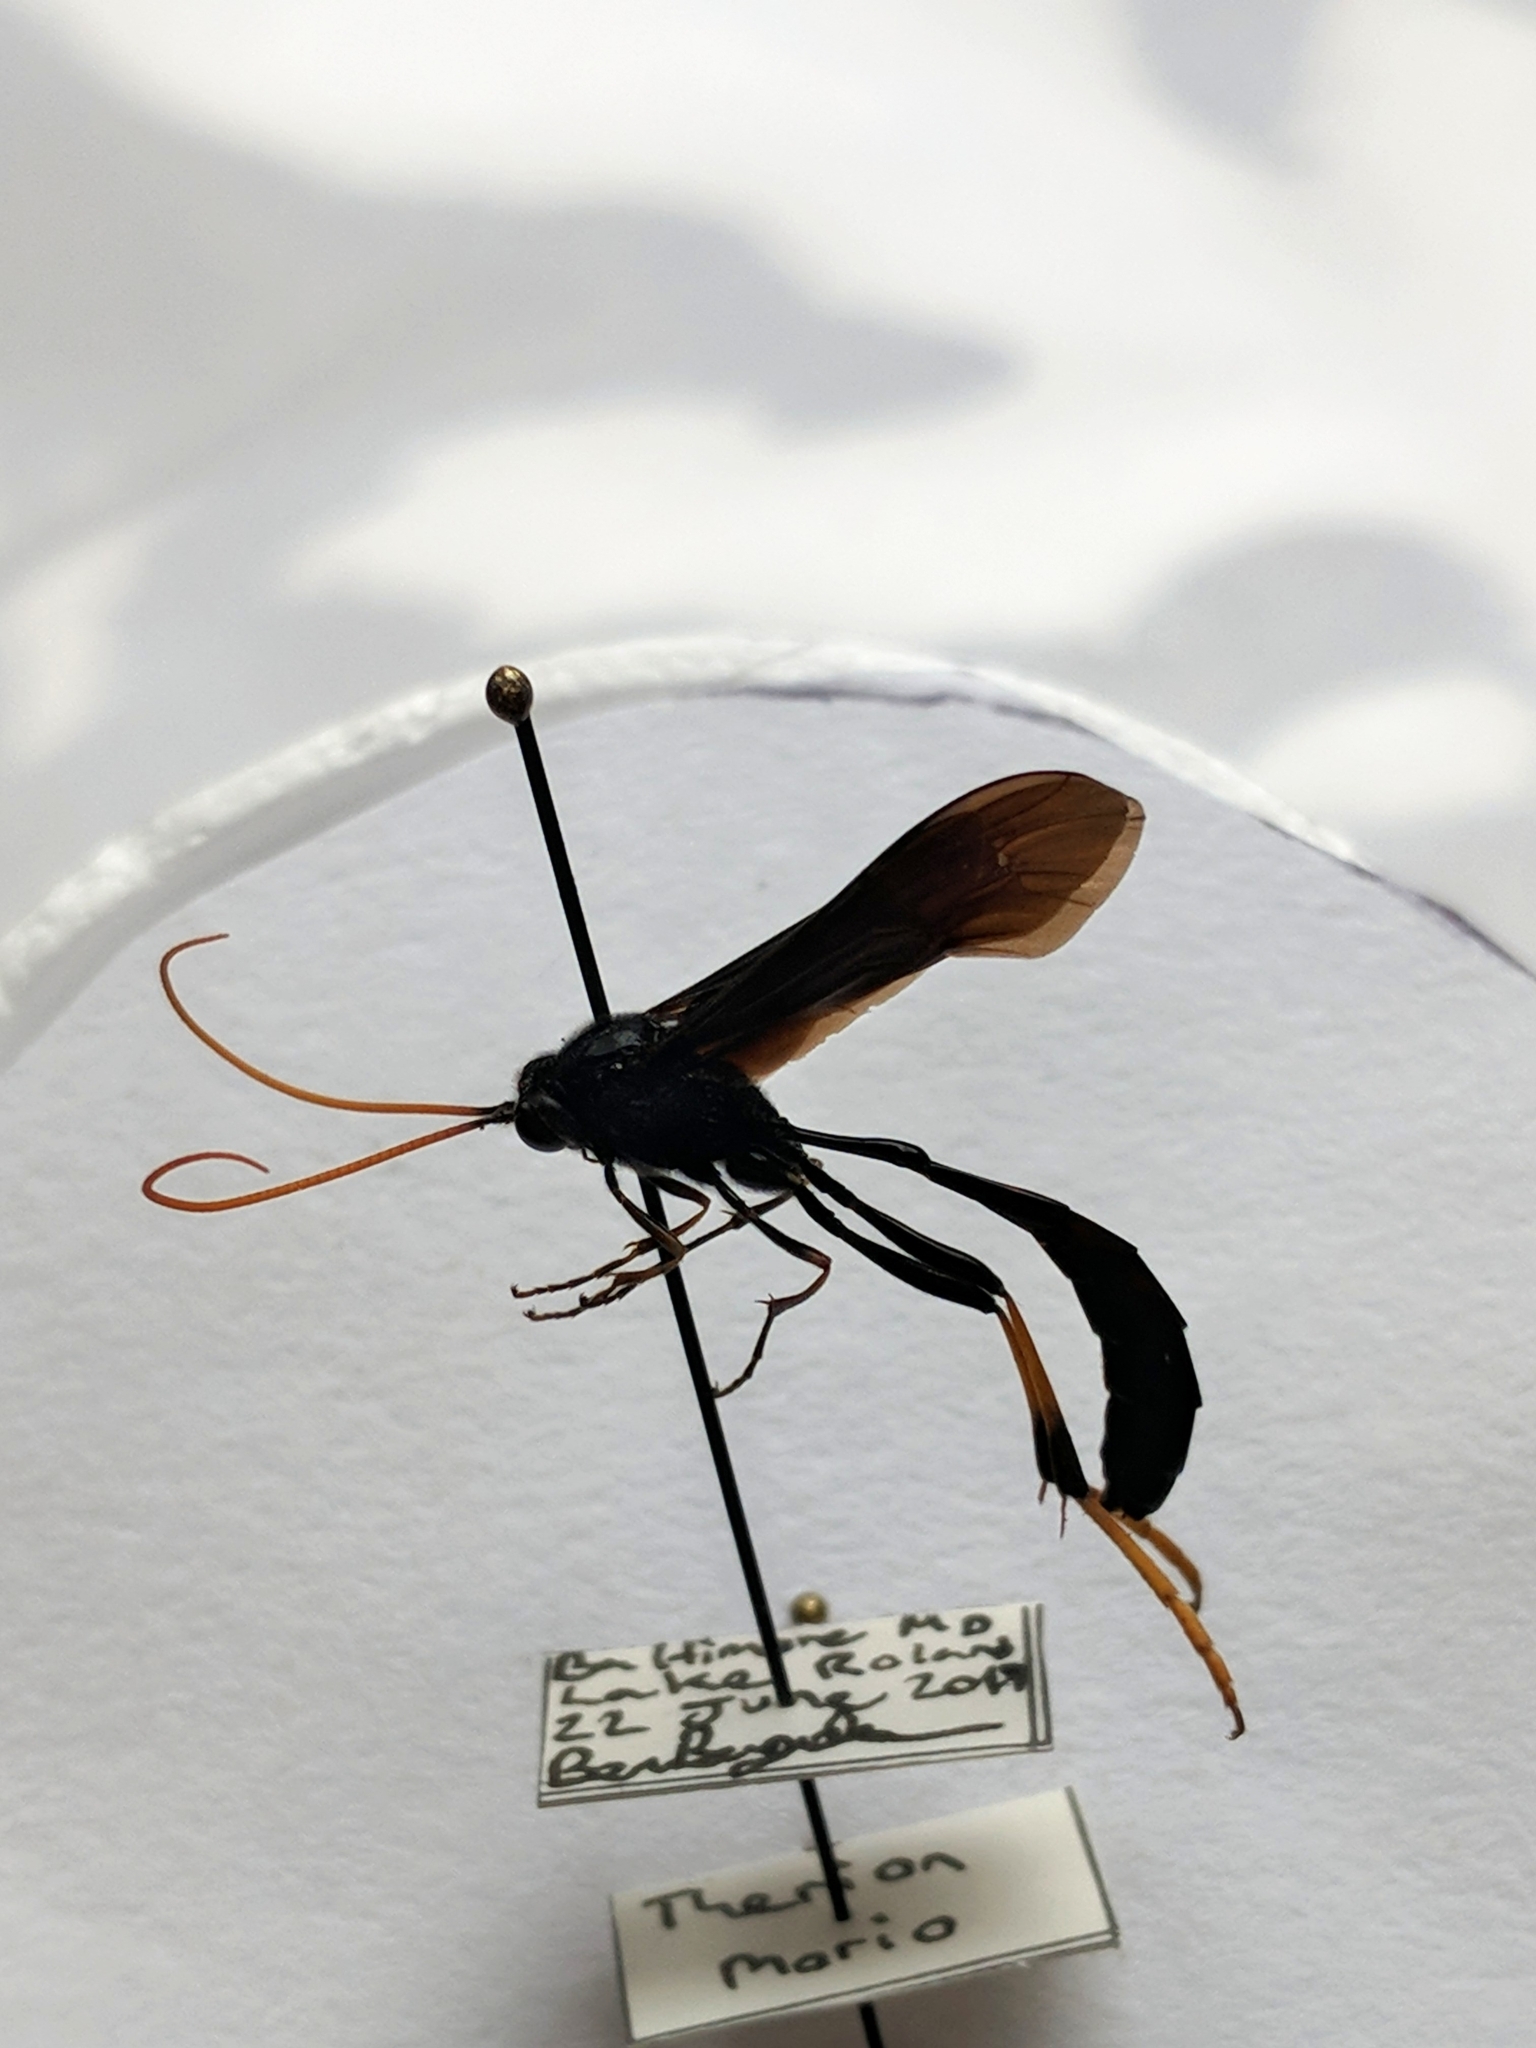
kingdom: Animalia
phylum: Arthropoda
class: Insecta
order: Hymenoptera
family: Ichneumonidae
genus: Therion
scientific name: Therion morio
